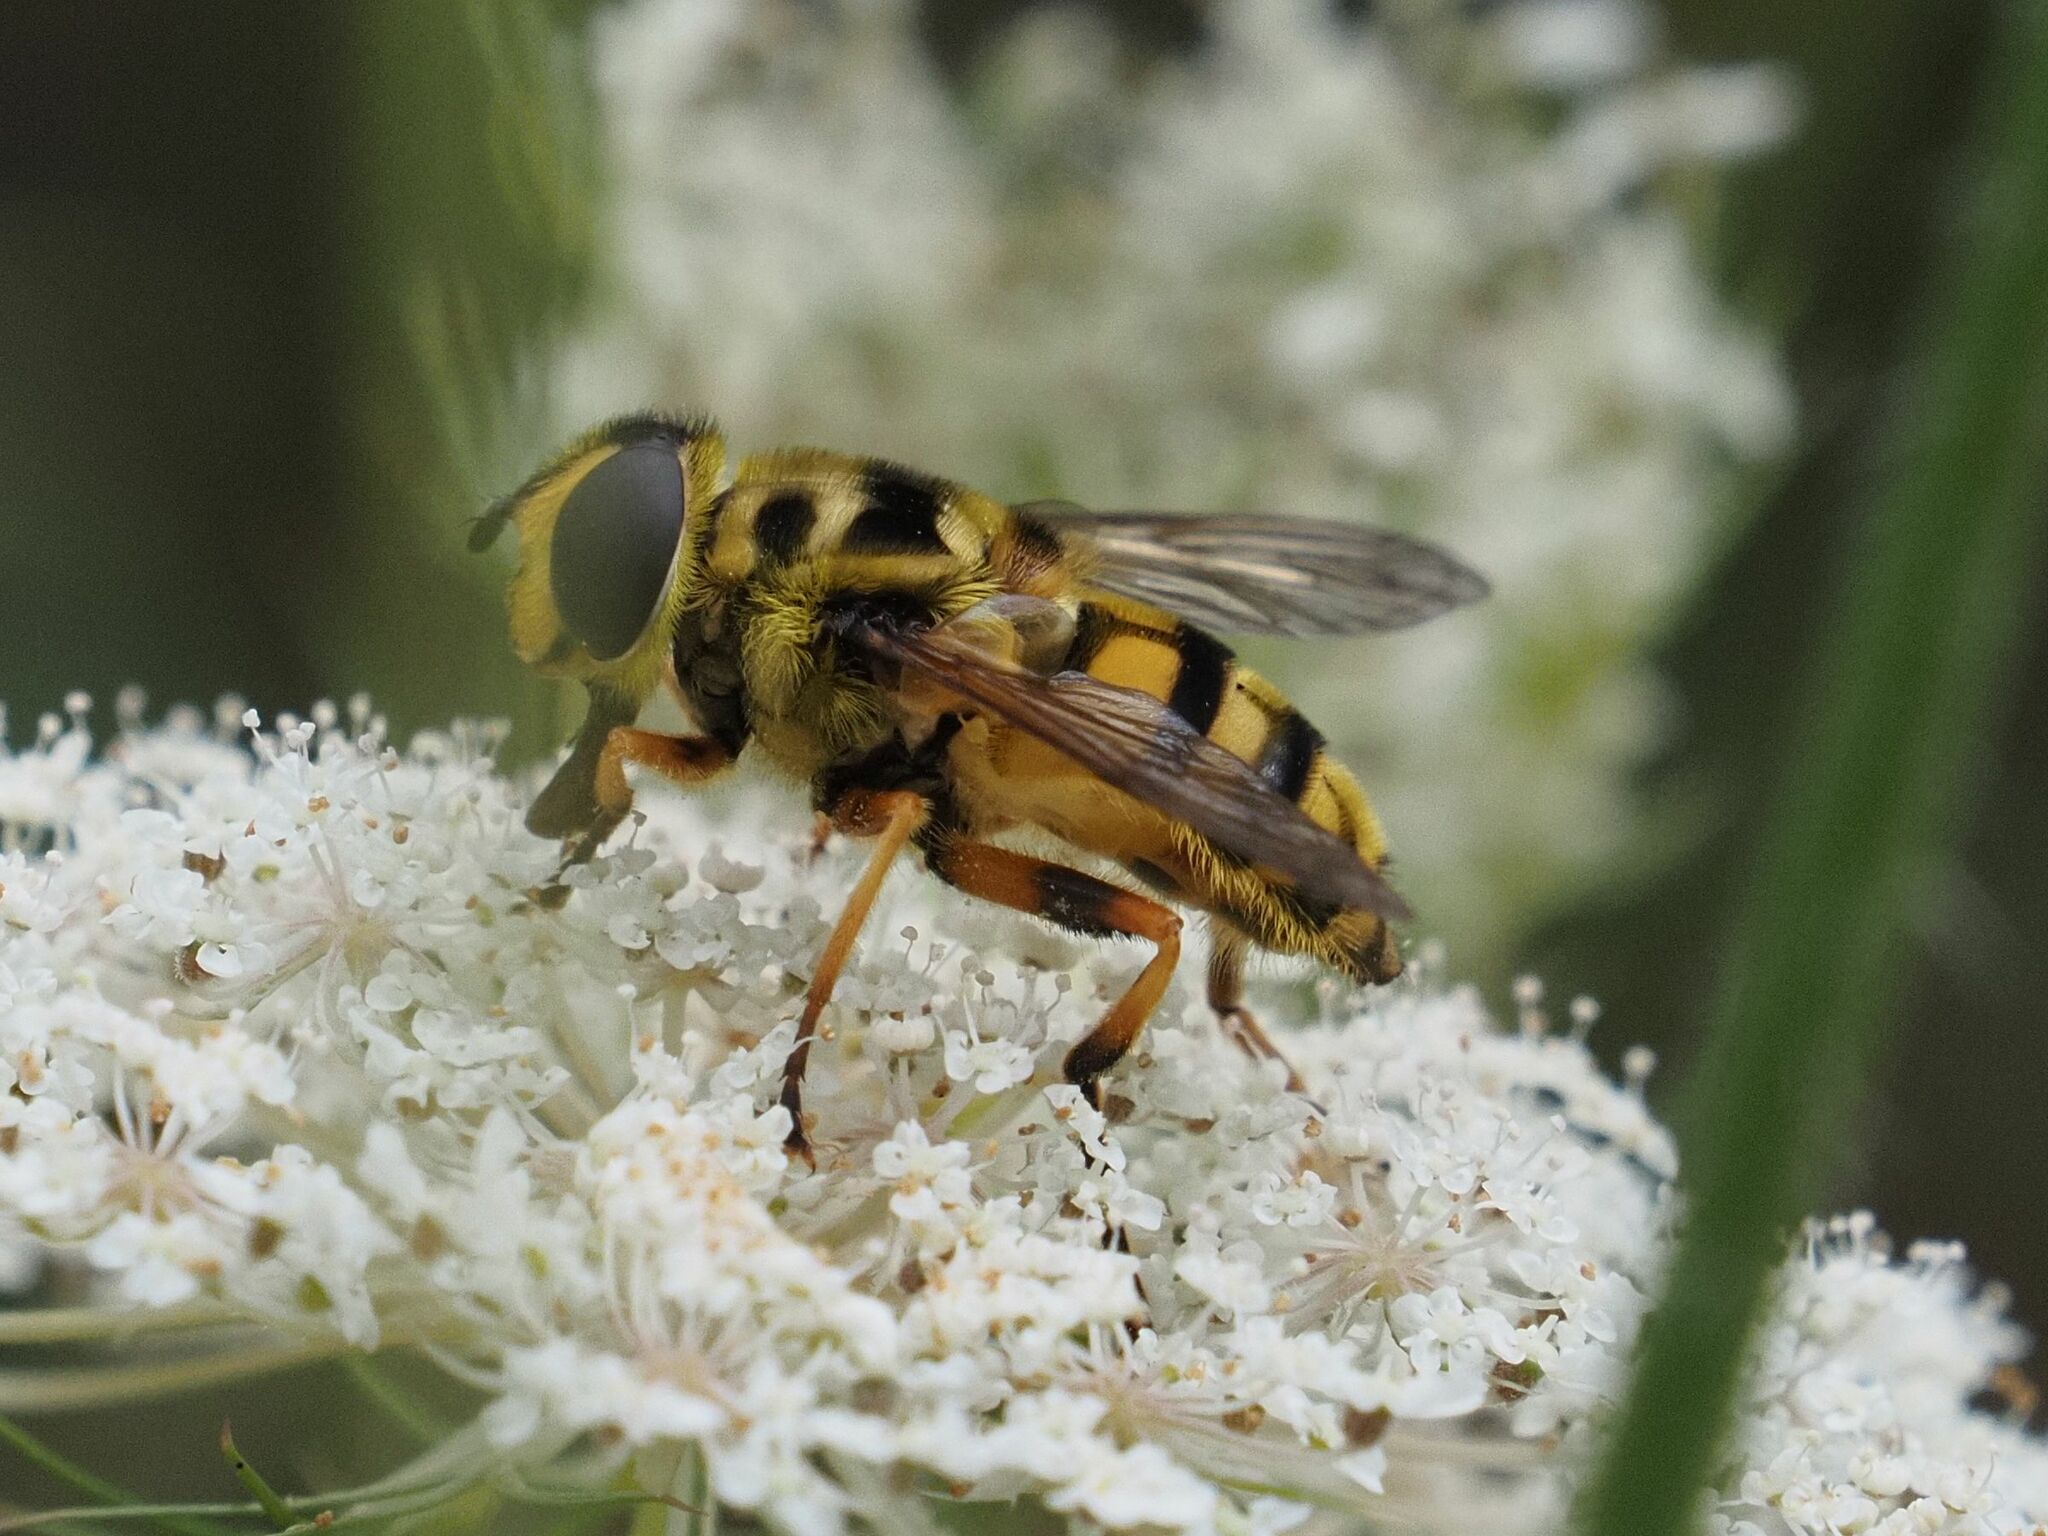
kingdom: Animalia
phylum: Arthropoda
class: Insecta
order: Diptera
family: Syrphidae
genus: Myathropa
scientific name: Myathropa florea
